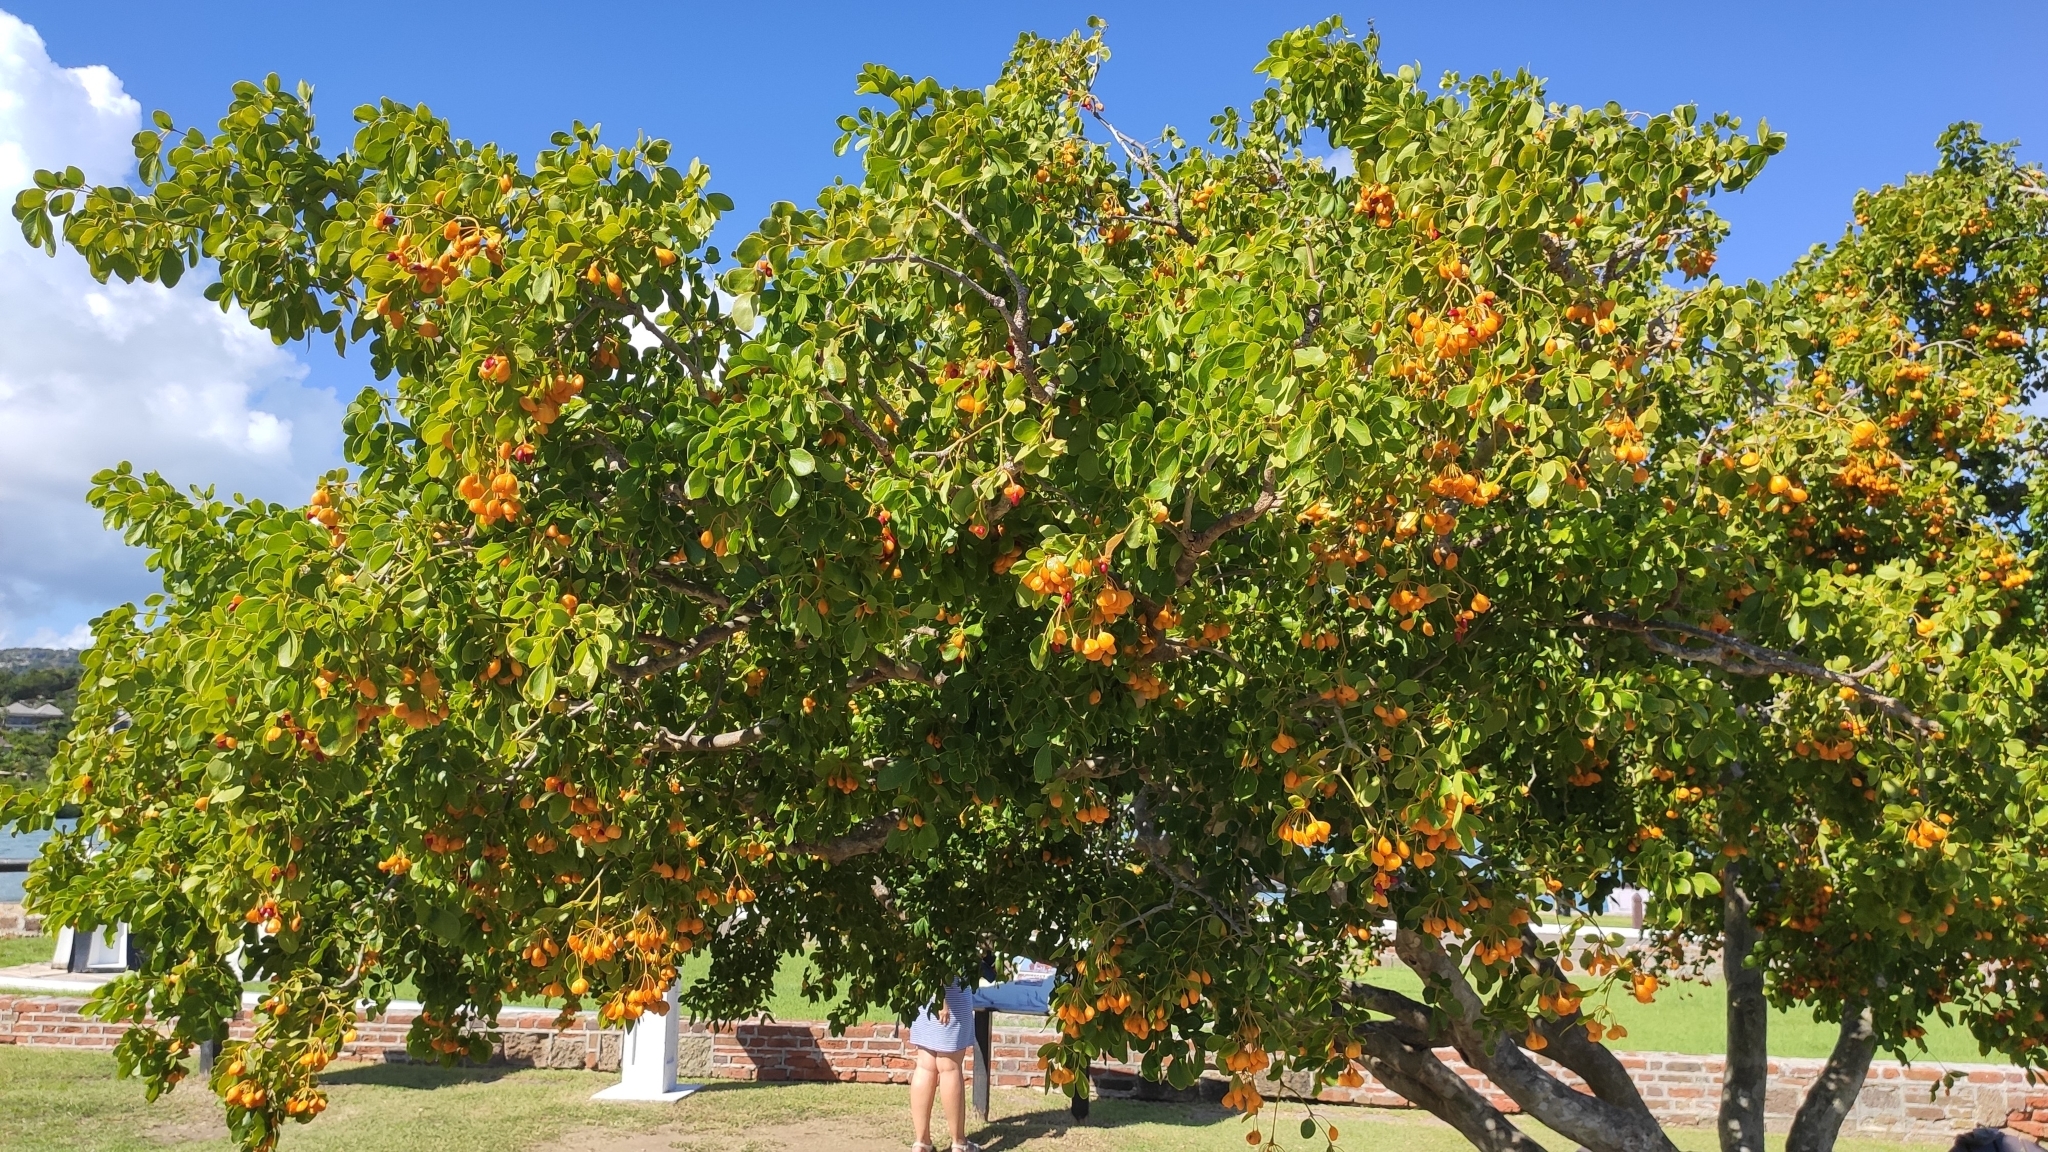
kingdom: Plantae
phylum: Tracheophyta
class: Magnoliopsida
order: Zygophyllales
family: Zygophyllaceae
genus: Guaiacum
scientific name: Guaiacum officinale
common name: Lignum vitae
